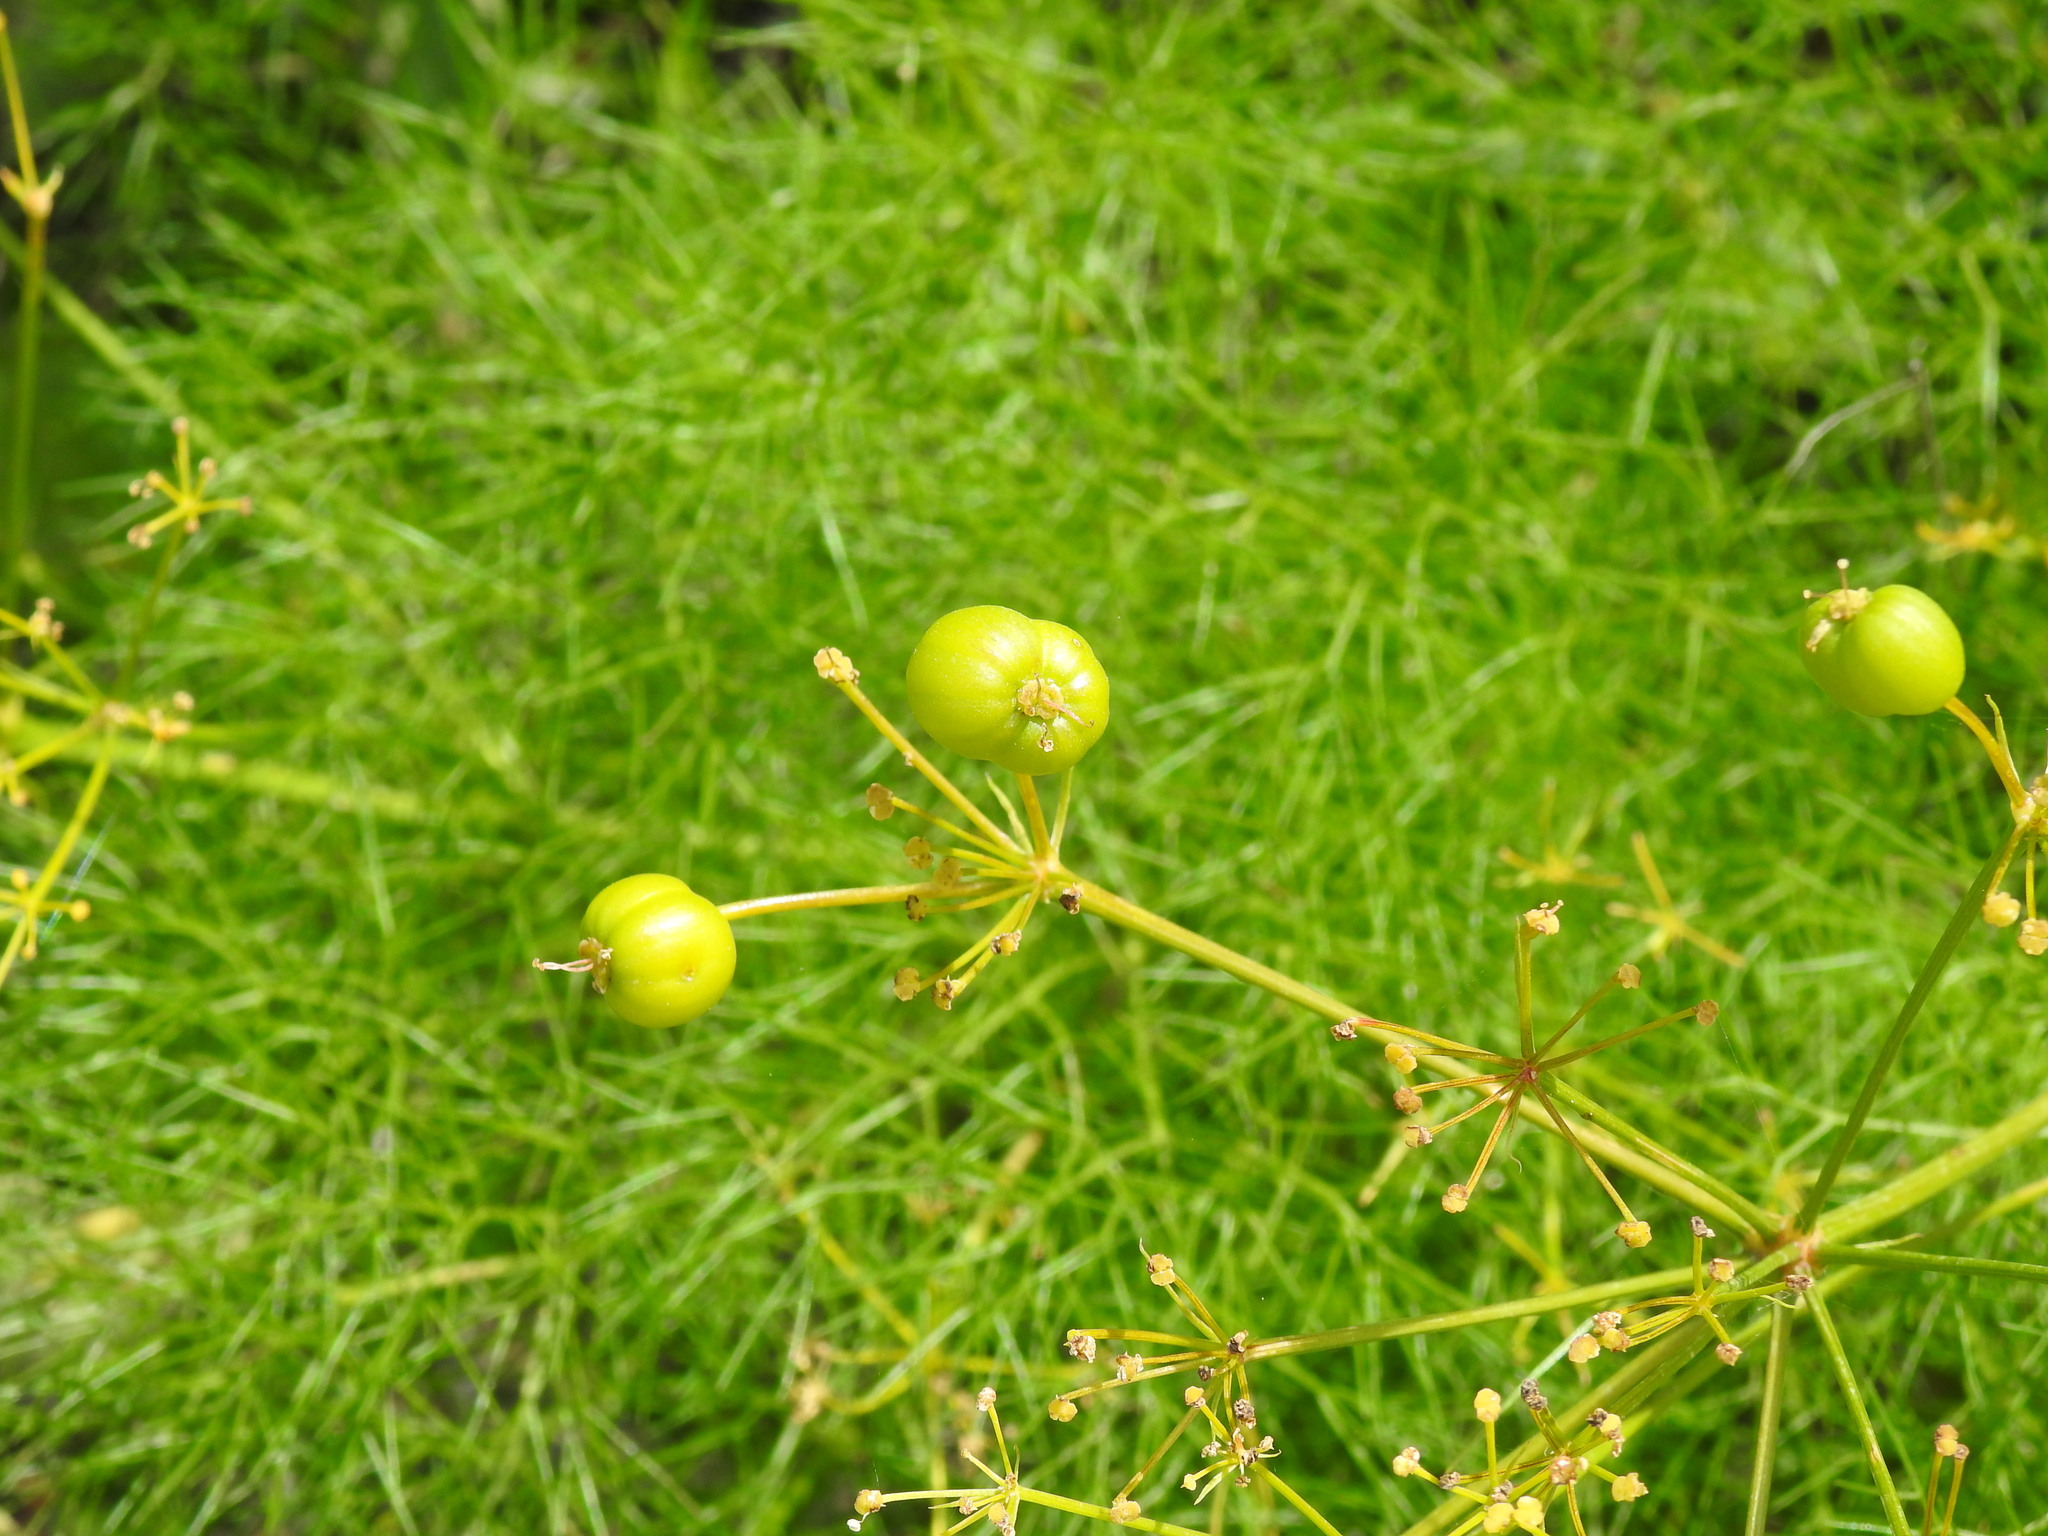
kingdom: Plantae
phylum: Tracheophyta
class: Magnoliopsida
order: Apiales
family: Apiaceae
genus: Prangos
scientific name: Prangos trifida
